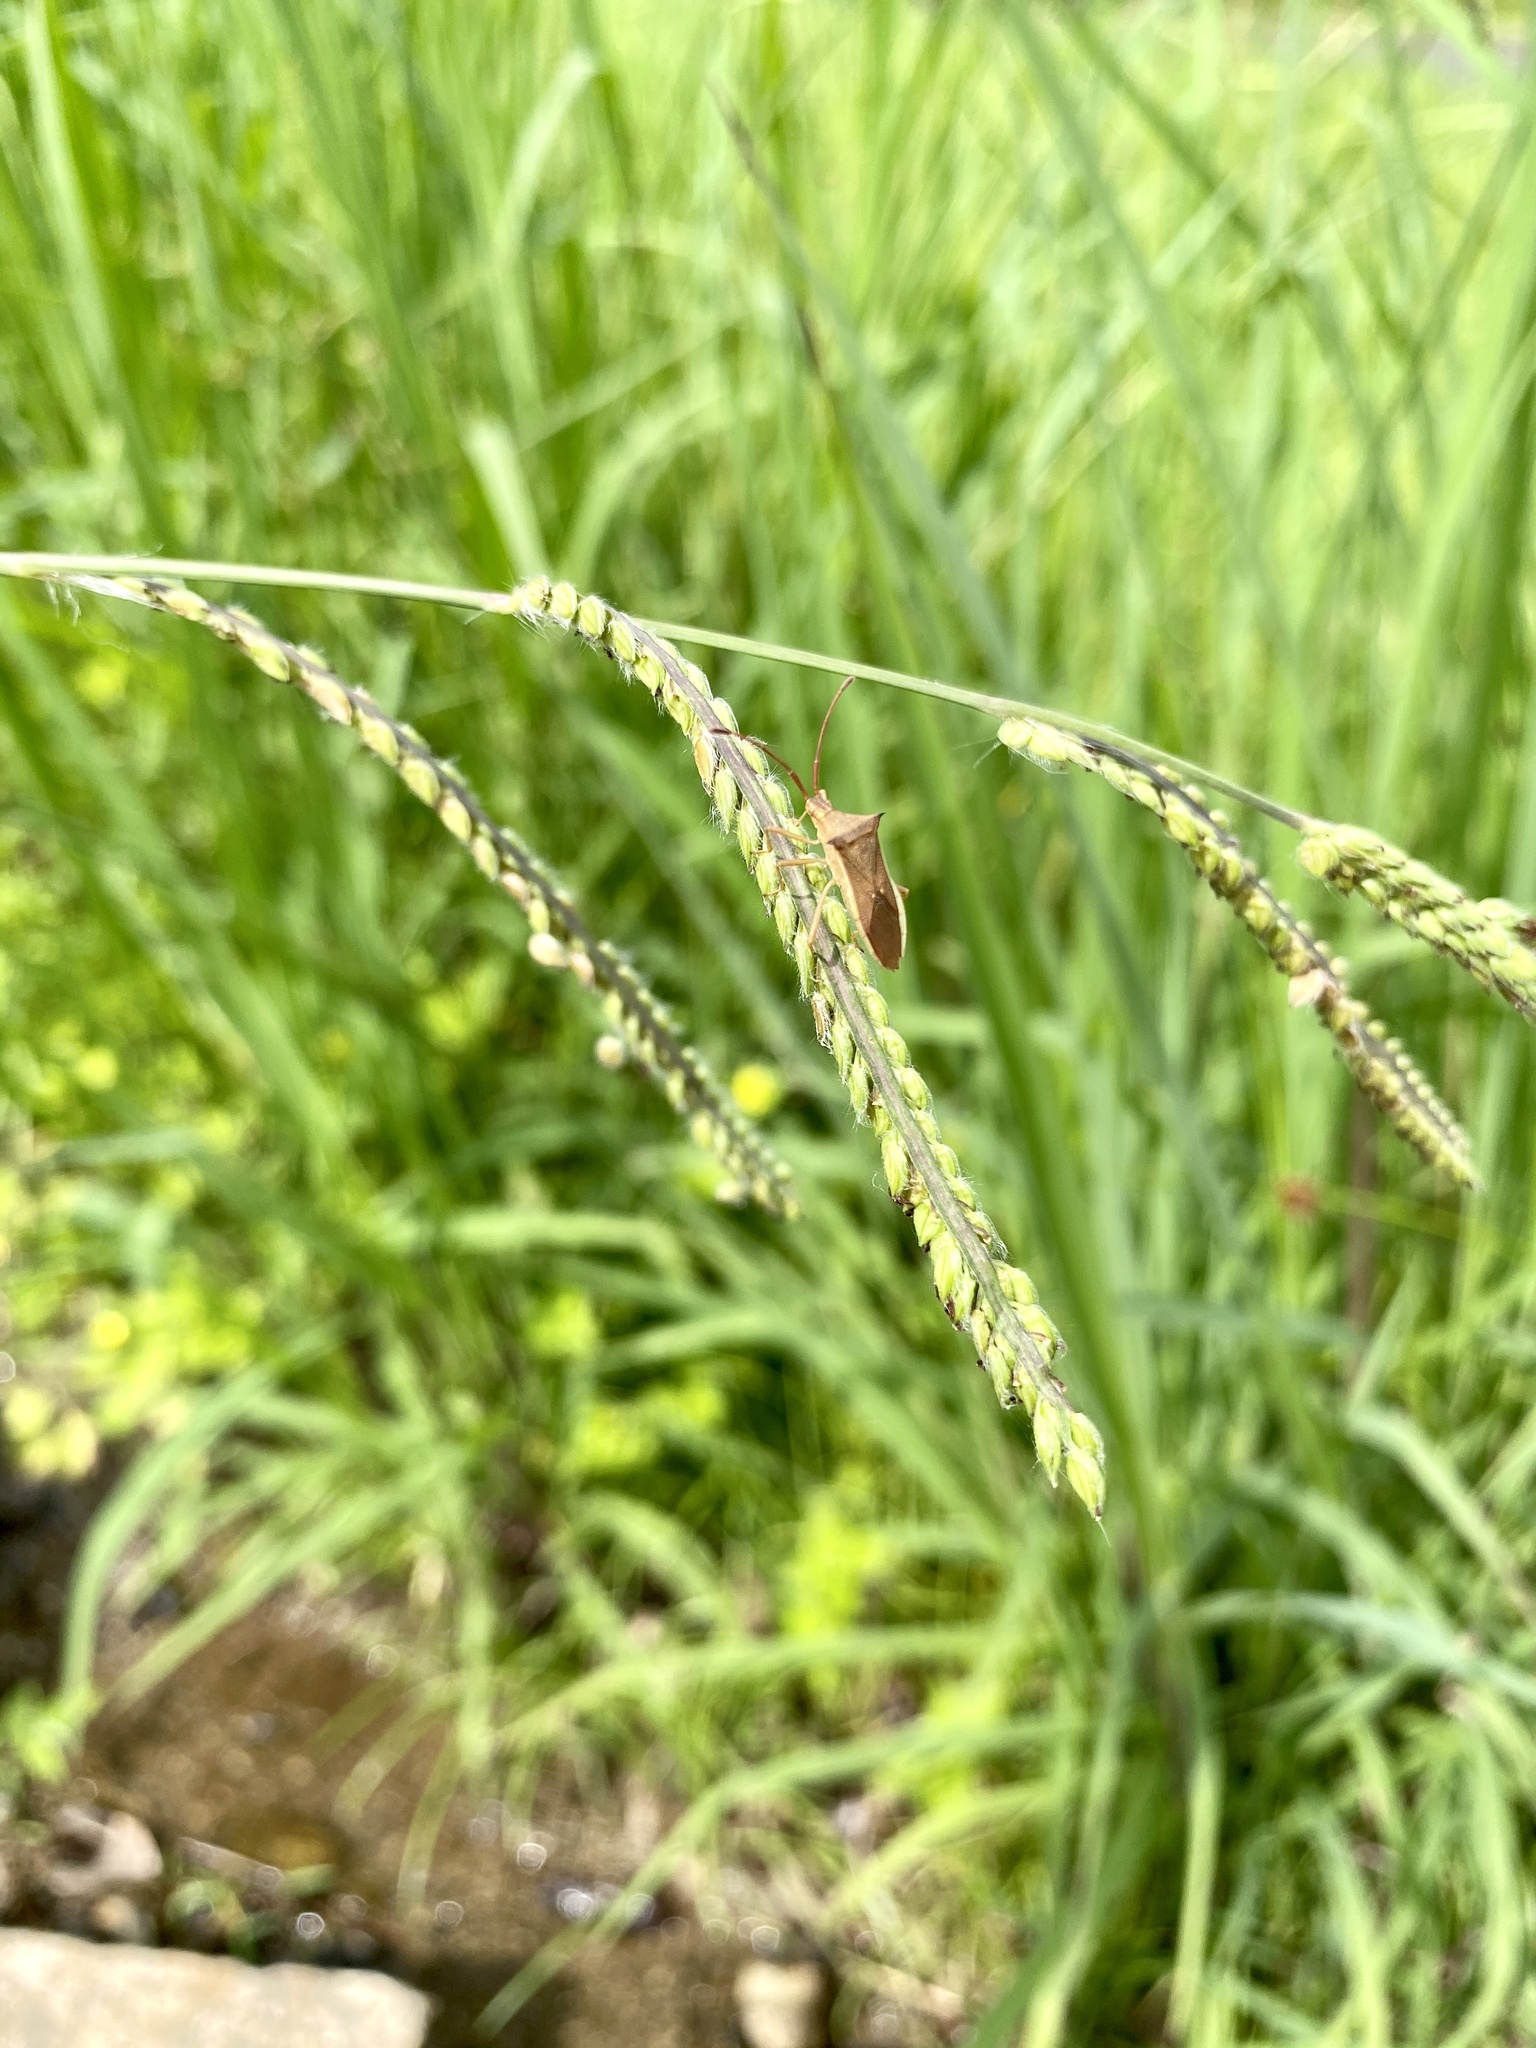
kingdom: Plantae
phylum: Tracheophyta
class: Liliopsida
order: Poales
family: Poaceae
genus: Paspalum
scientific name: Paspalum dilatatum
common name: Dallisgrass
